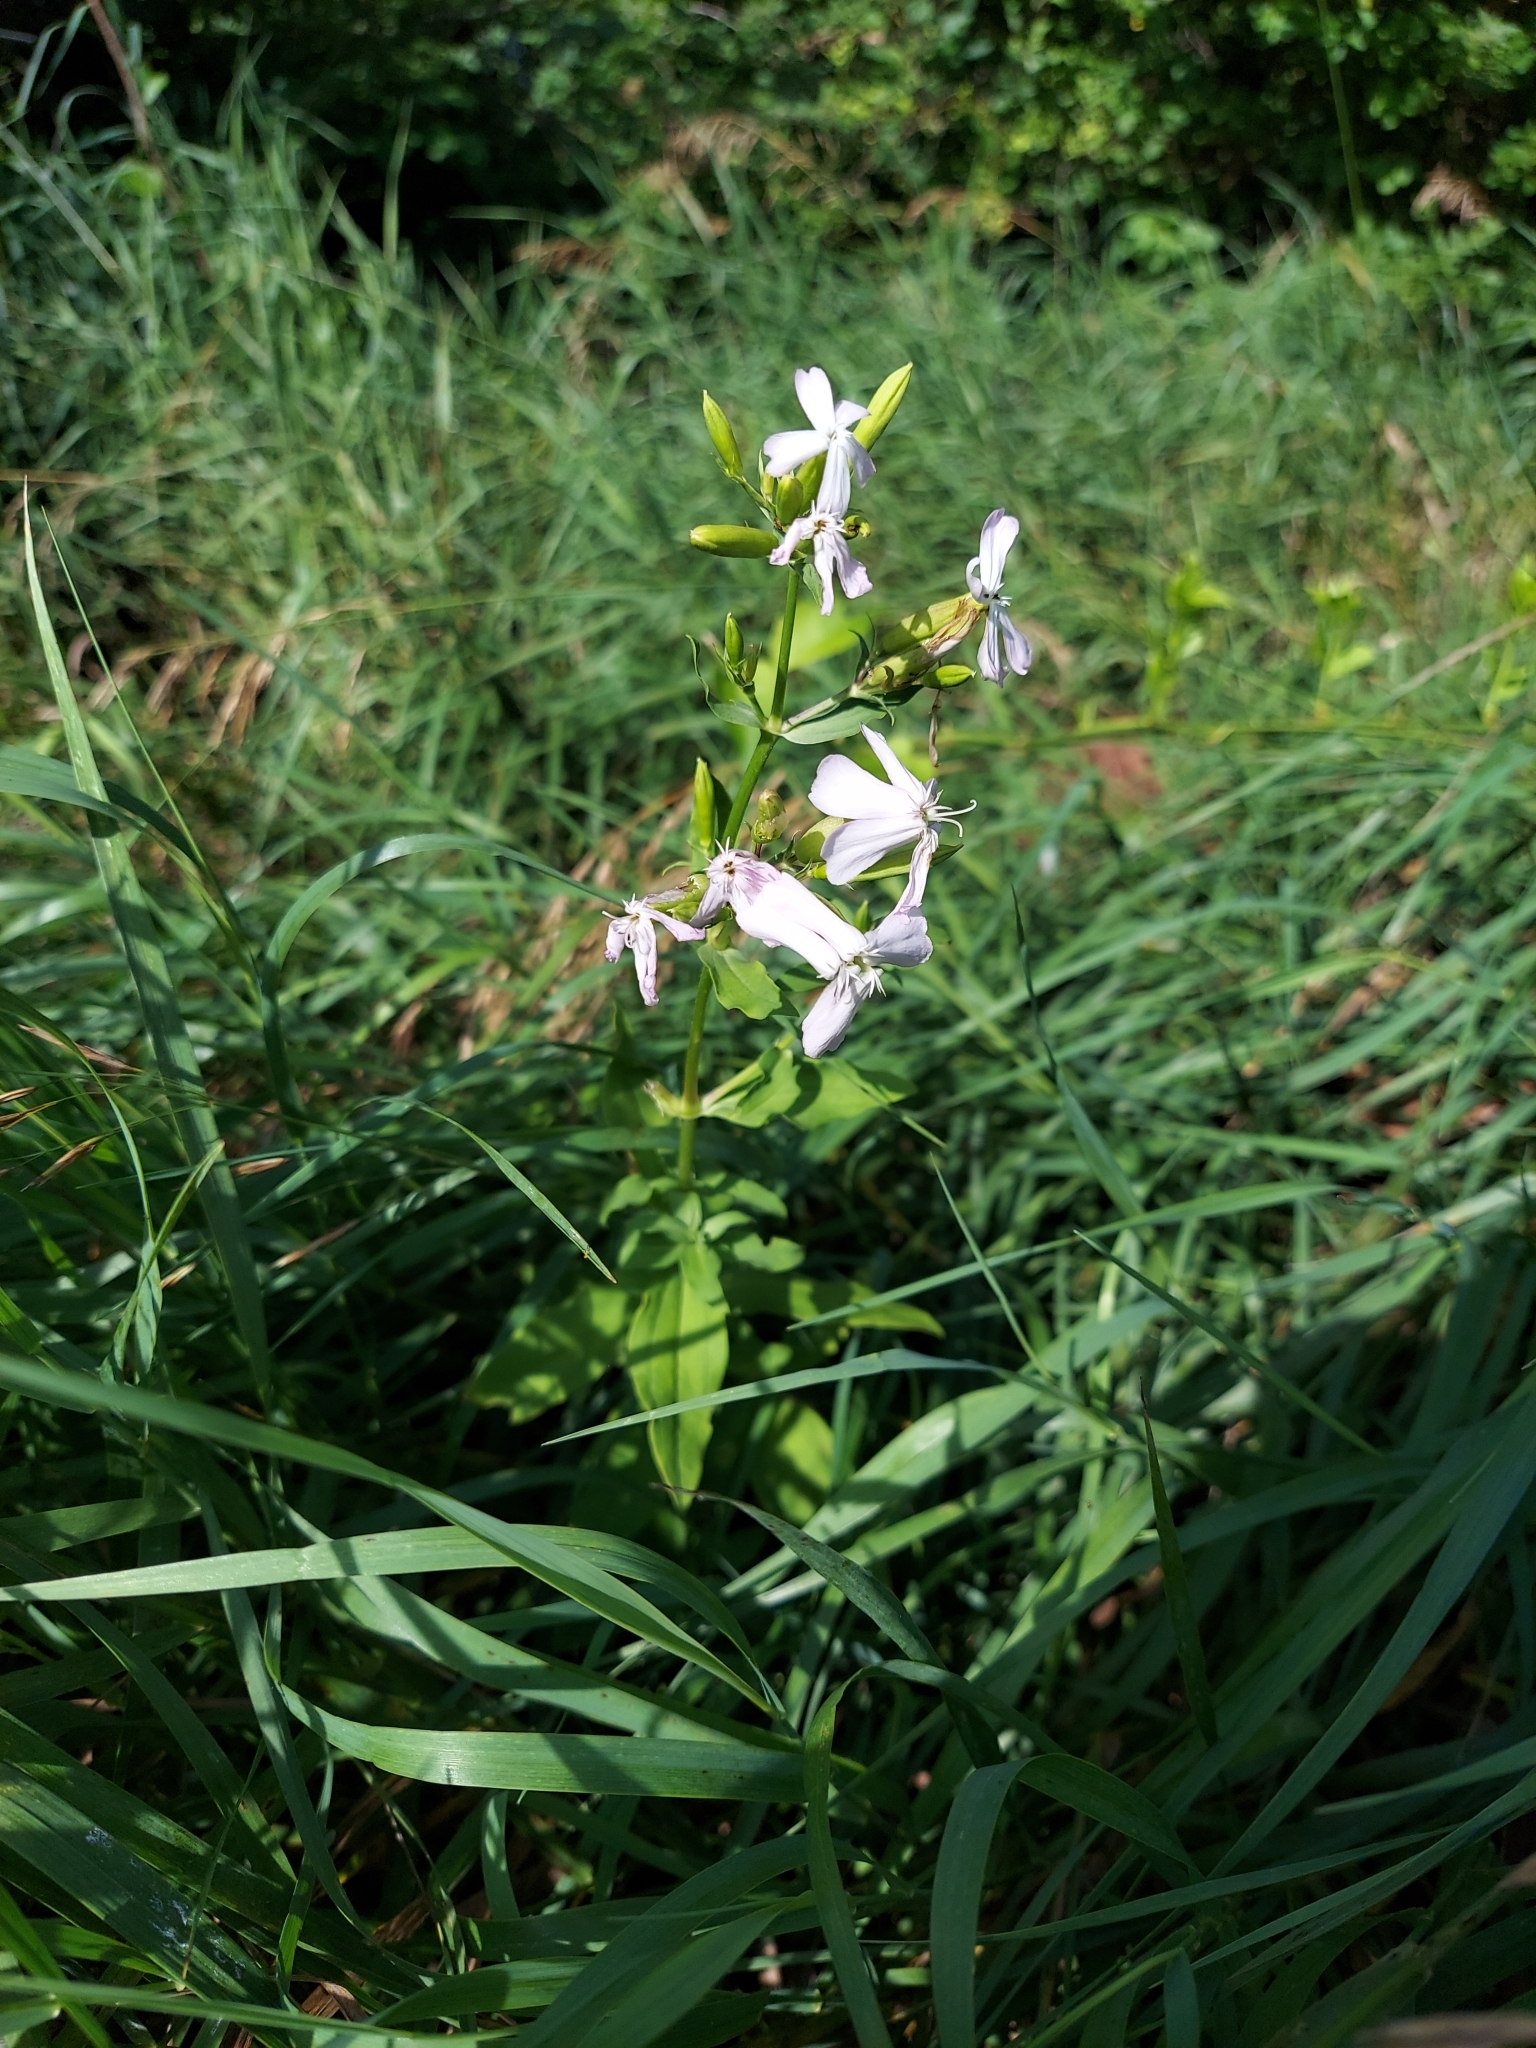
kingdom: Plantae
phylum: Tracheophyta
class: Magnoliopsida
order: Caryophyllales
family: Caryophyllaceae
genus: Saponaria
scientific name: Saponaria officinalis
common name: Soapwort
